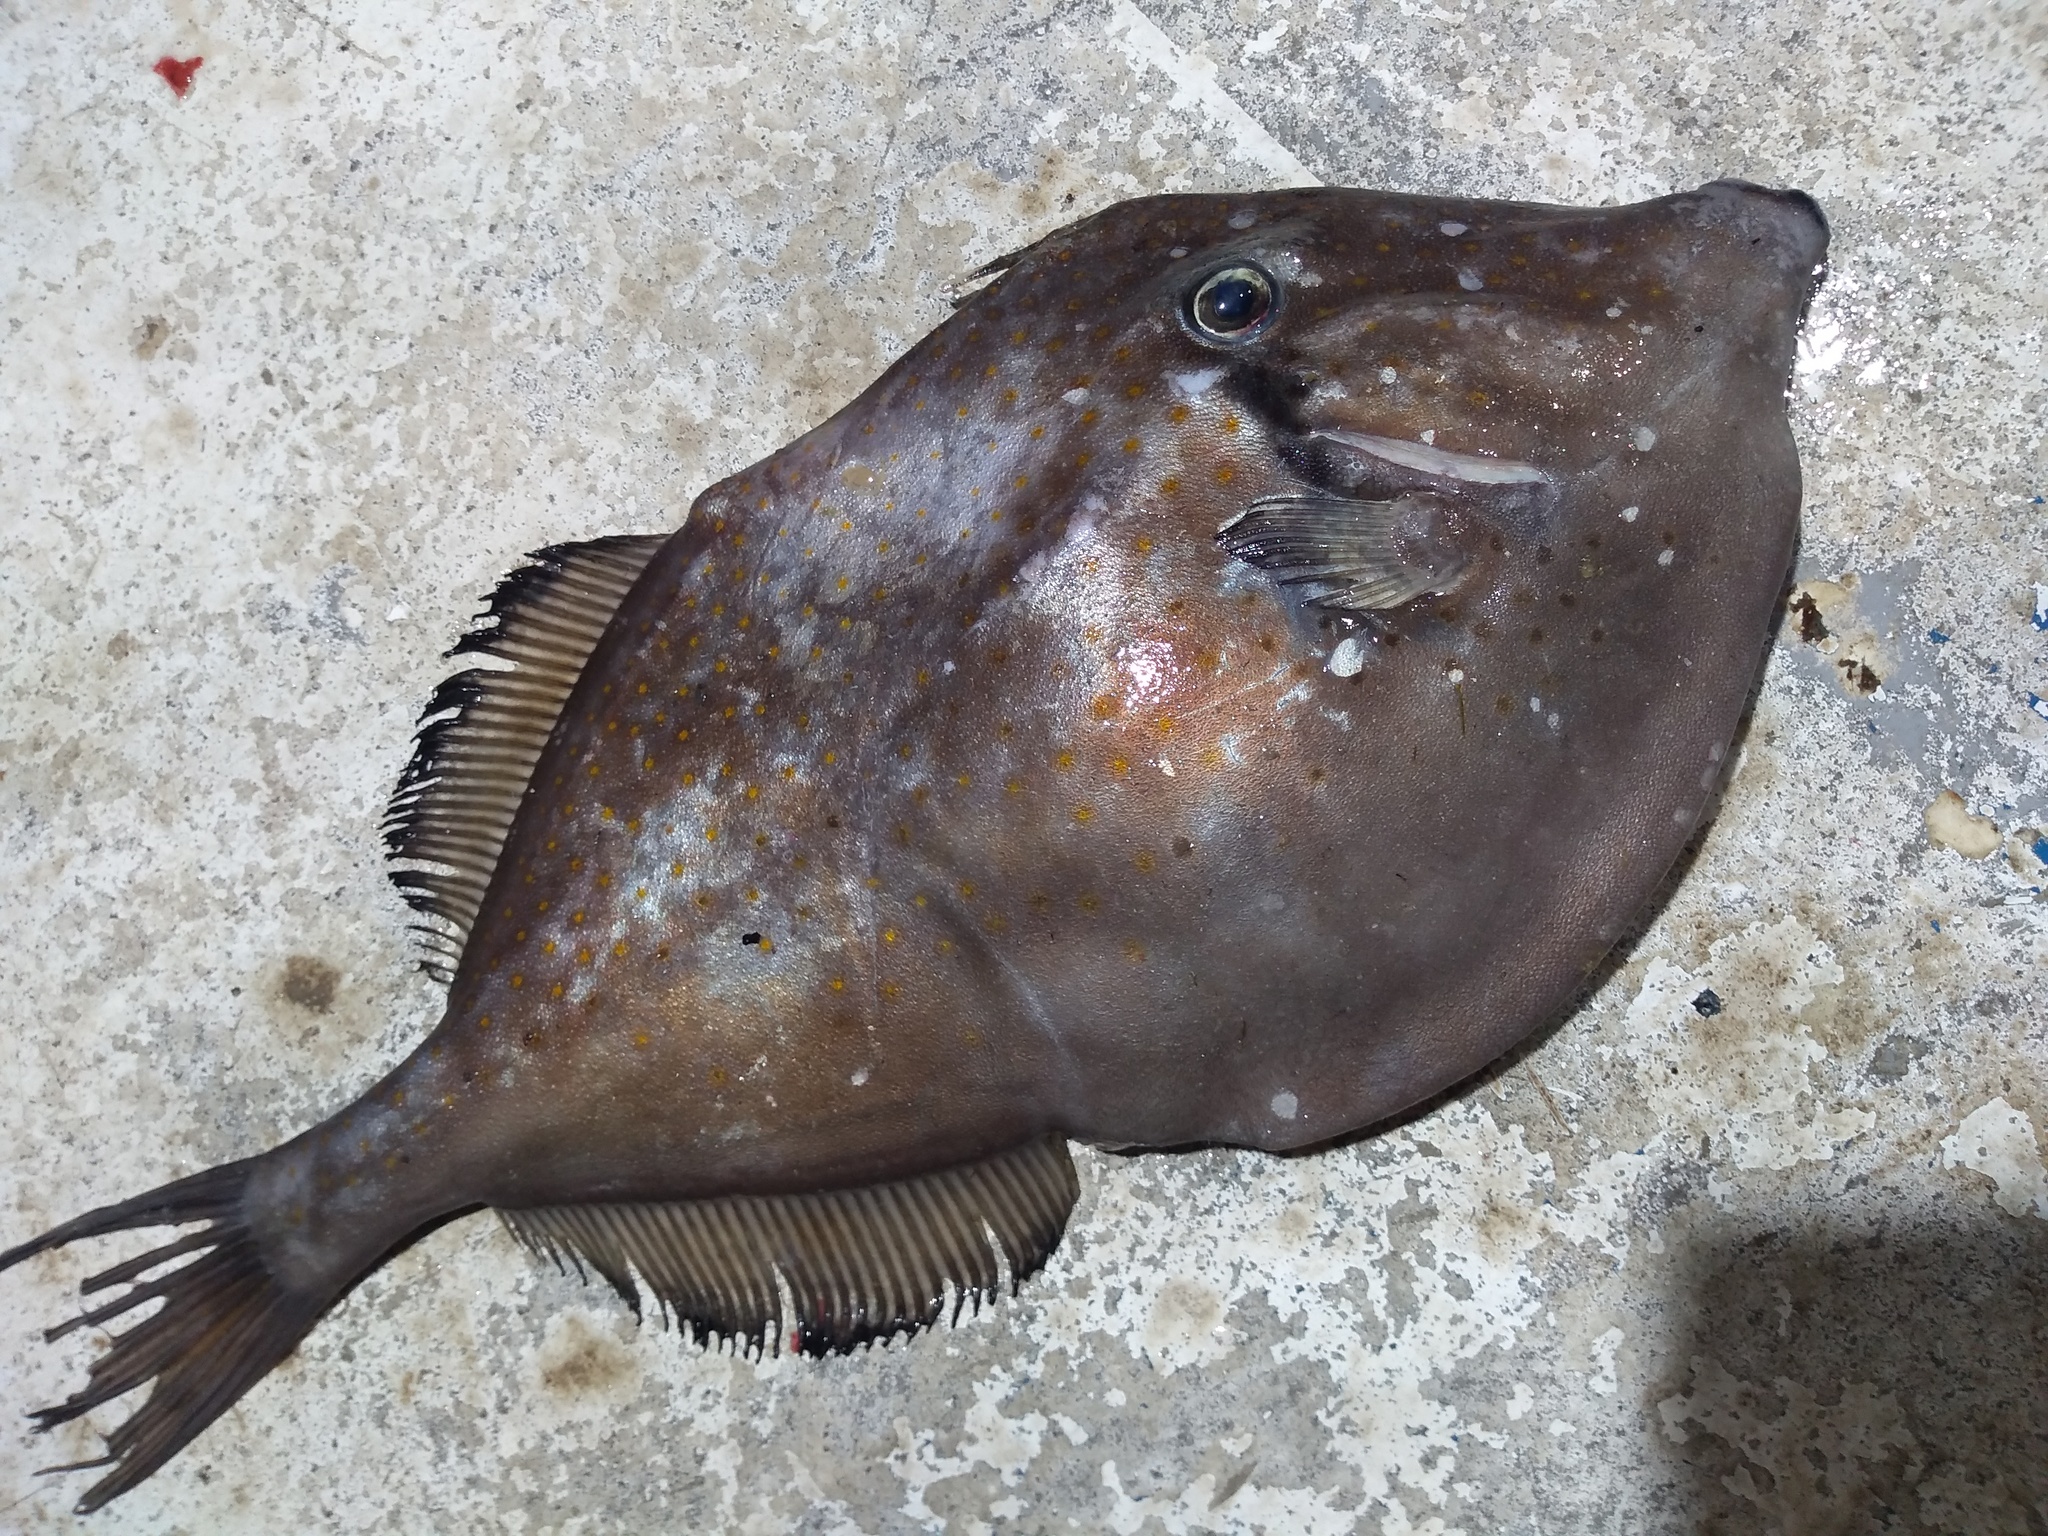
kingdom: Animalia
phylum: Chordata
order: Tetraodontiformes
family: Monacanthidae
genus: Aluterus
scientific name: Aluterus schoepfii
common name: Orange filefish
